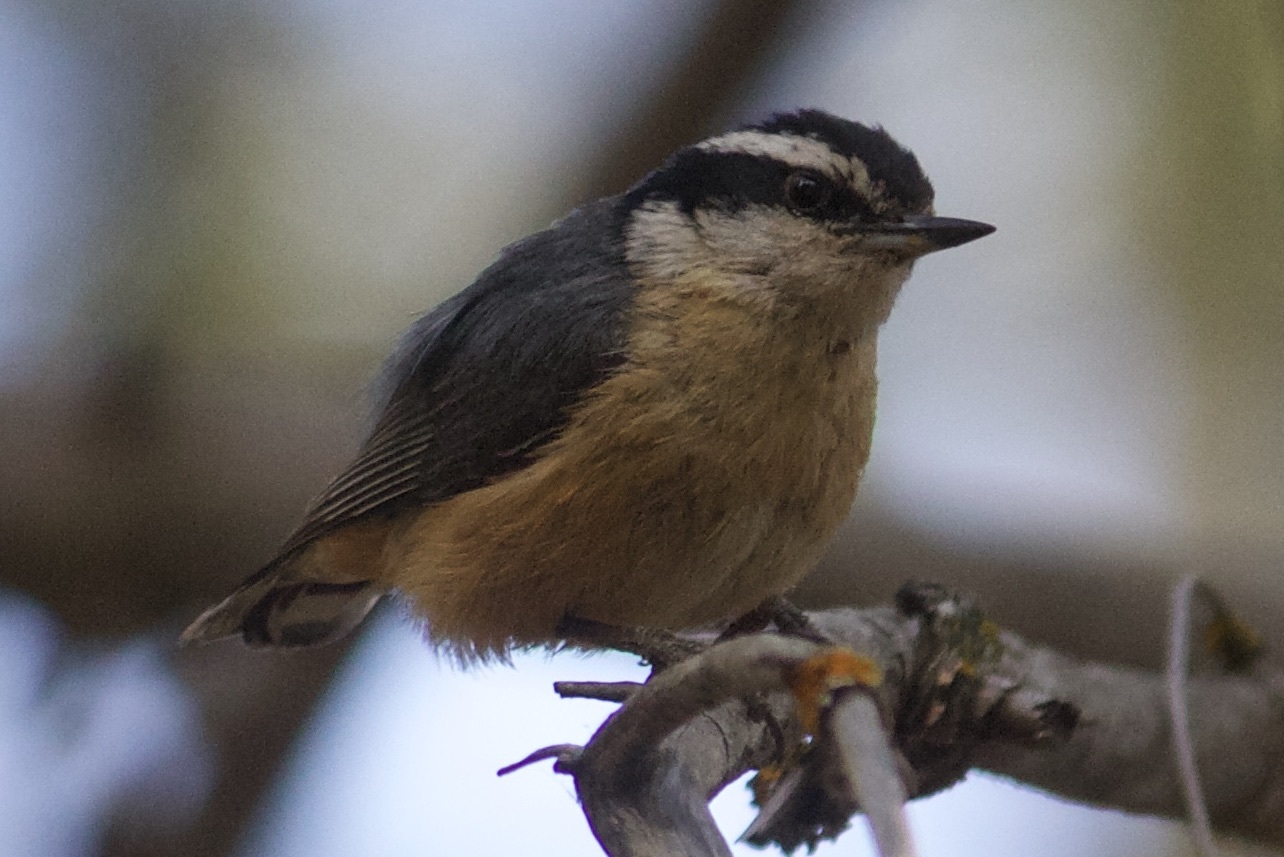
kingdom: Animalia
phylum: Chordata
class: Aves
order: Passeriformes
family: Sittidae
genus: Sitta
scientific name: Sitta canadensis
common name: Red-breasted nuthatch
